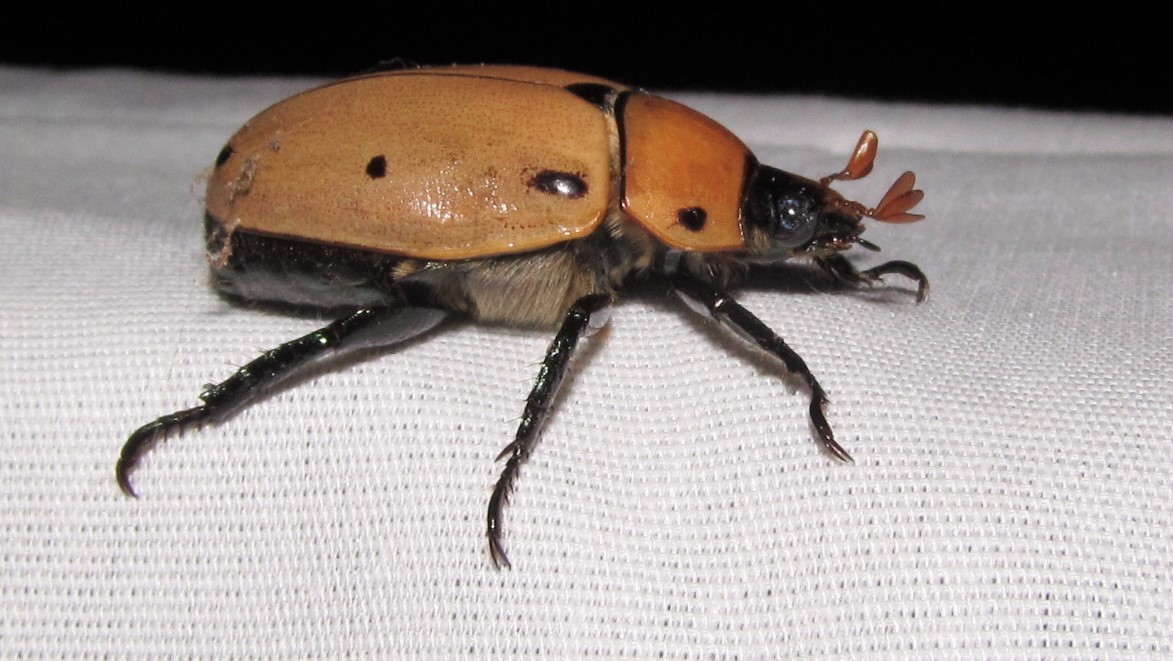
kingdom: Animalia
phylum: Arthropoda
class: Insecta
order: Coleoptera
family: Scarabaeidae
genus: Pelidnota
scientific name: Pelidnota punctata
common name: Grapevine beetle
